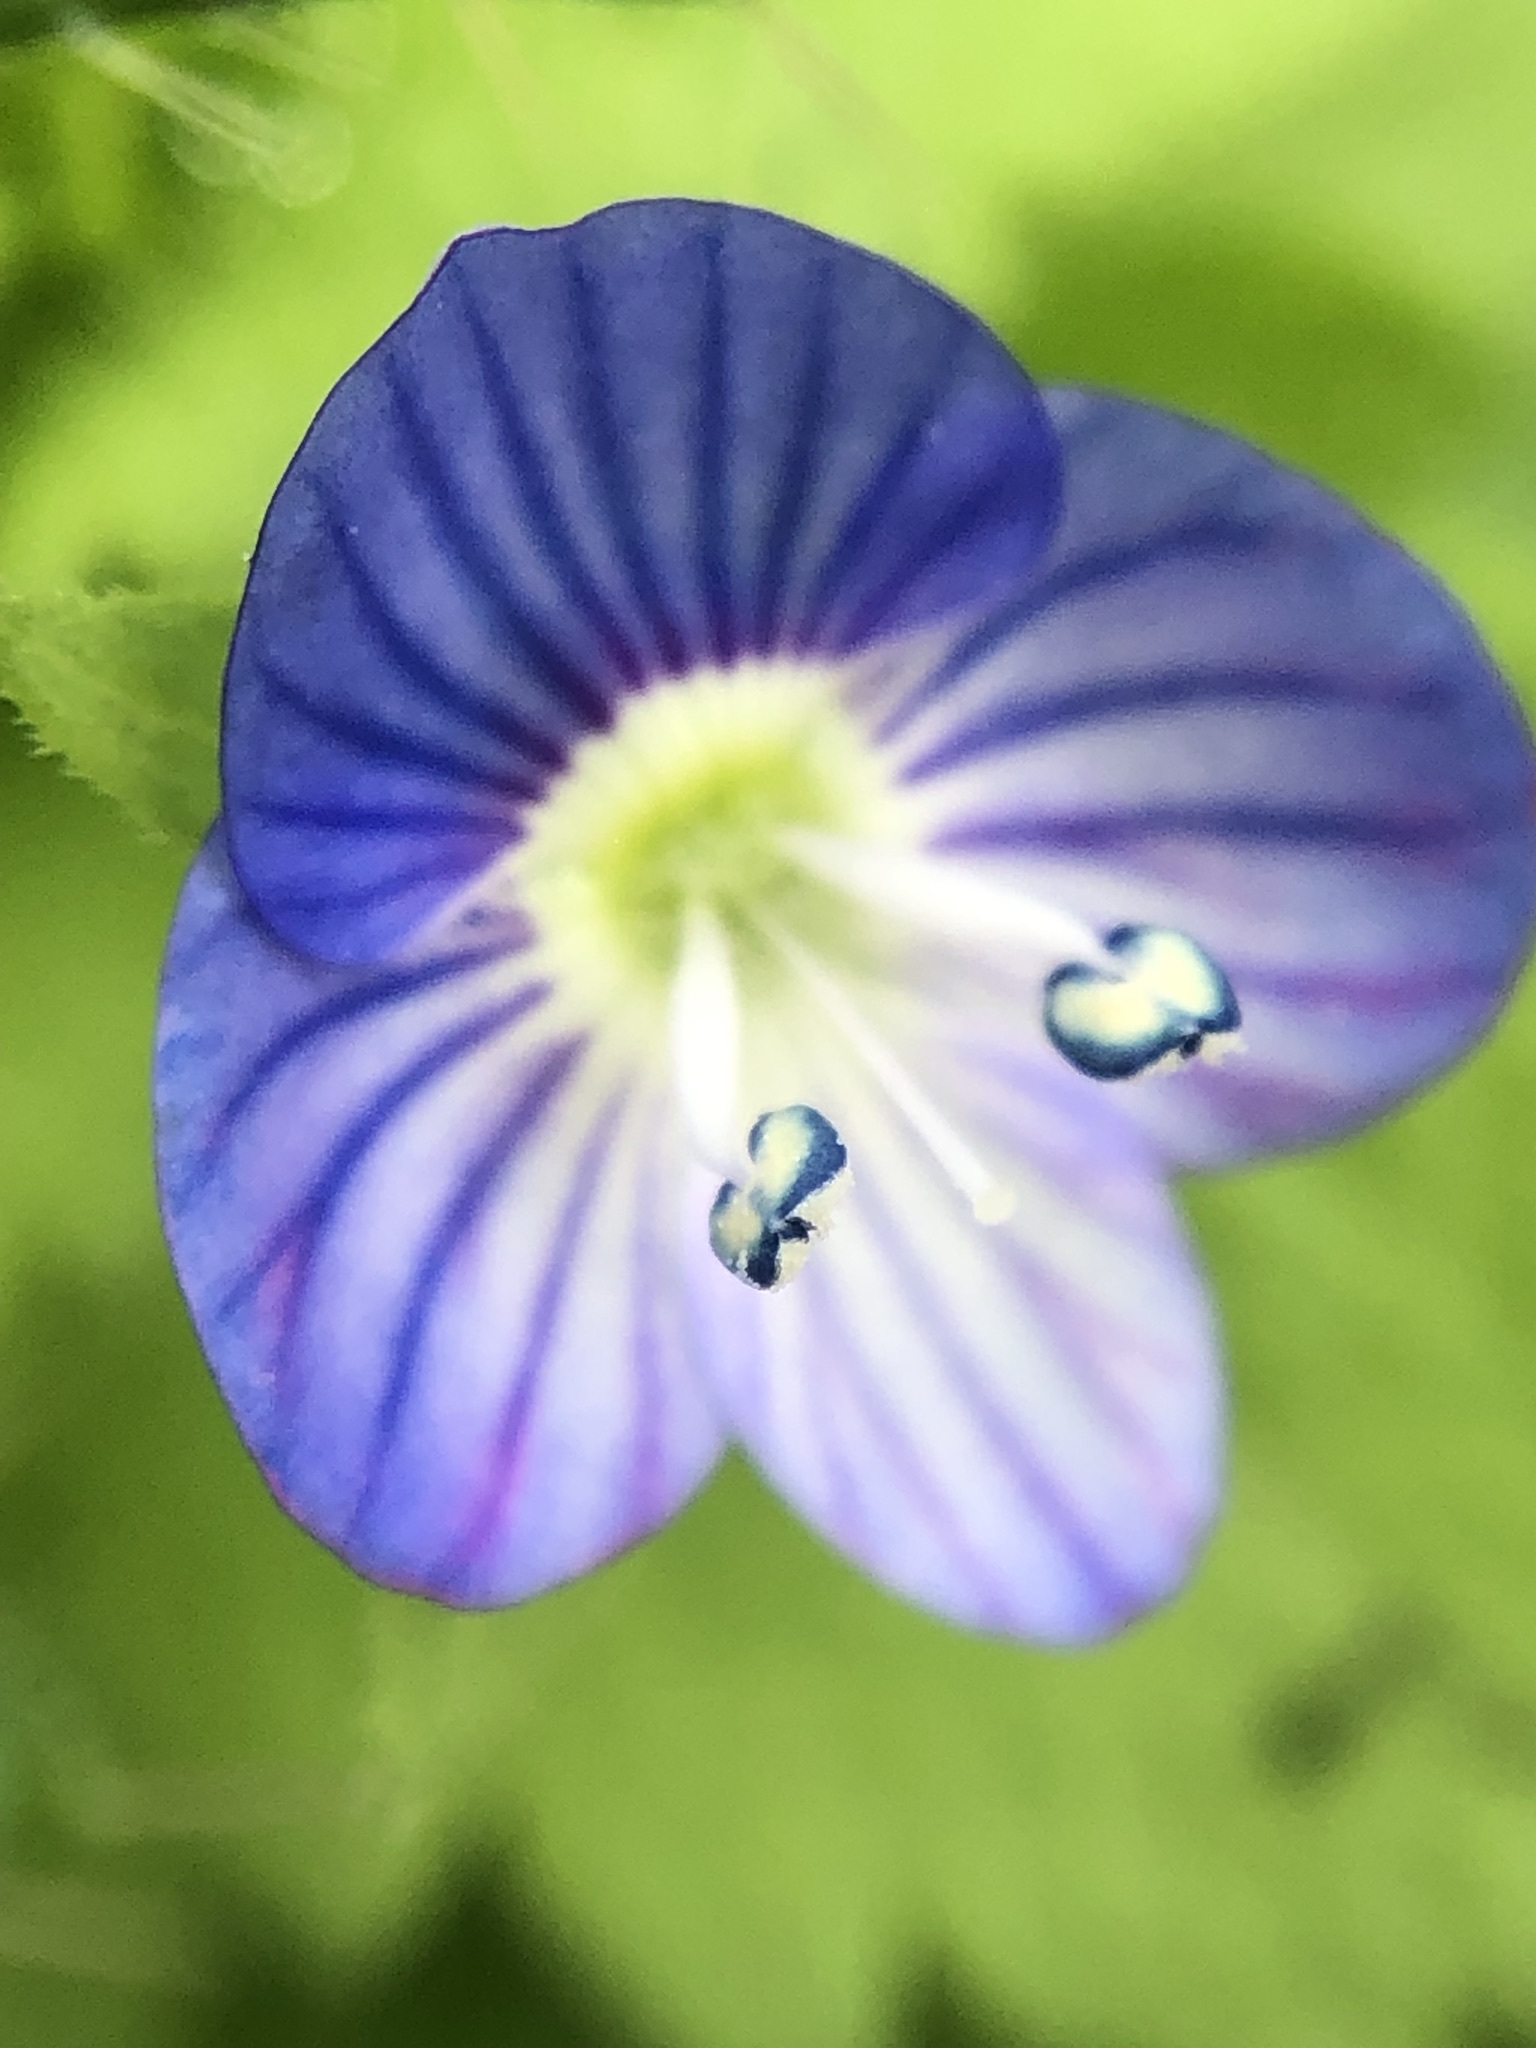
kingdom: Plantae
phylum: Tracheophyta
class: Magnoliopsida
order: Lamiales
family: Plantaginaceae
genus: Veronica
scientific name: Veronica persica
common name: Common field-speedwell
